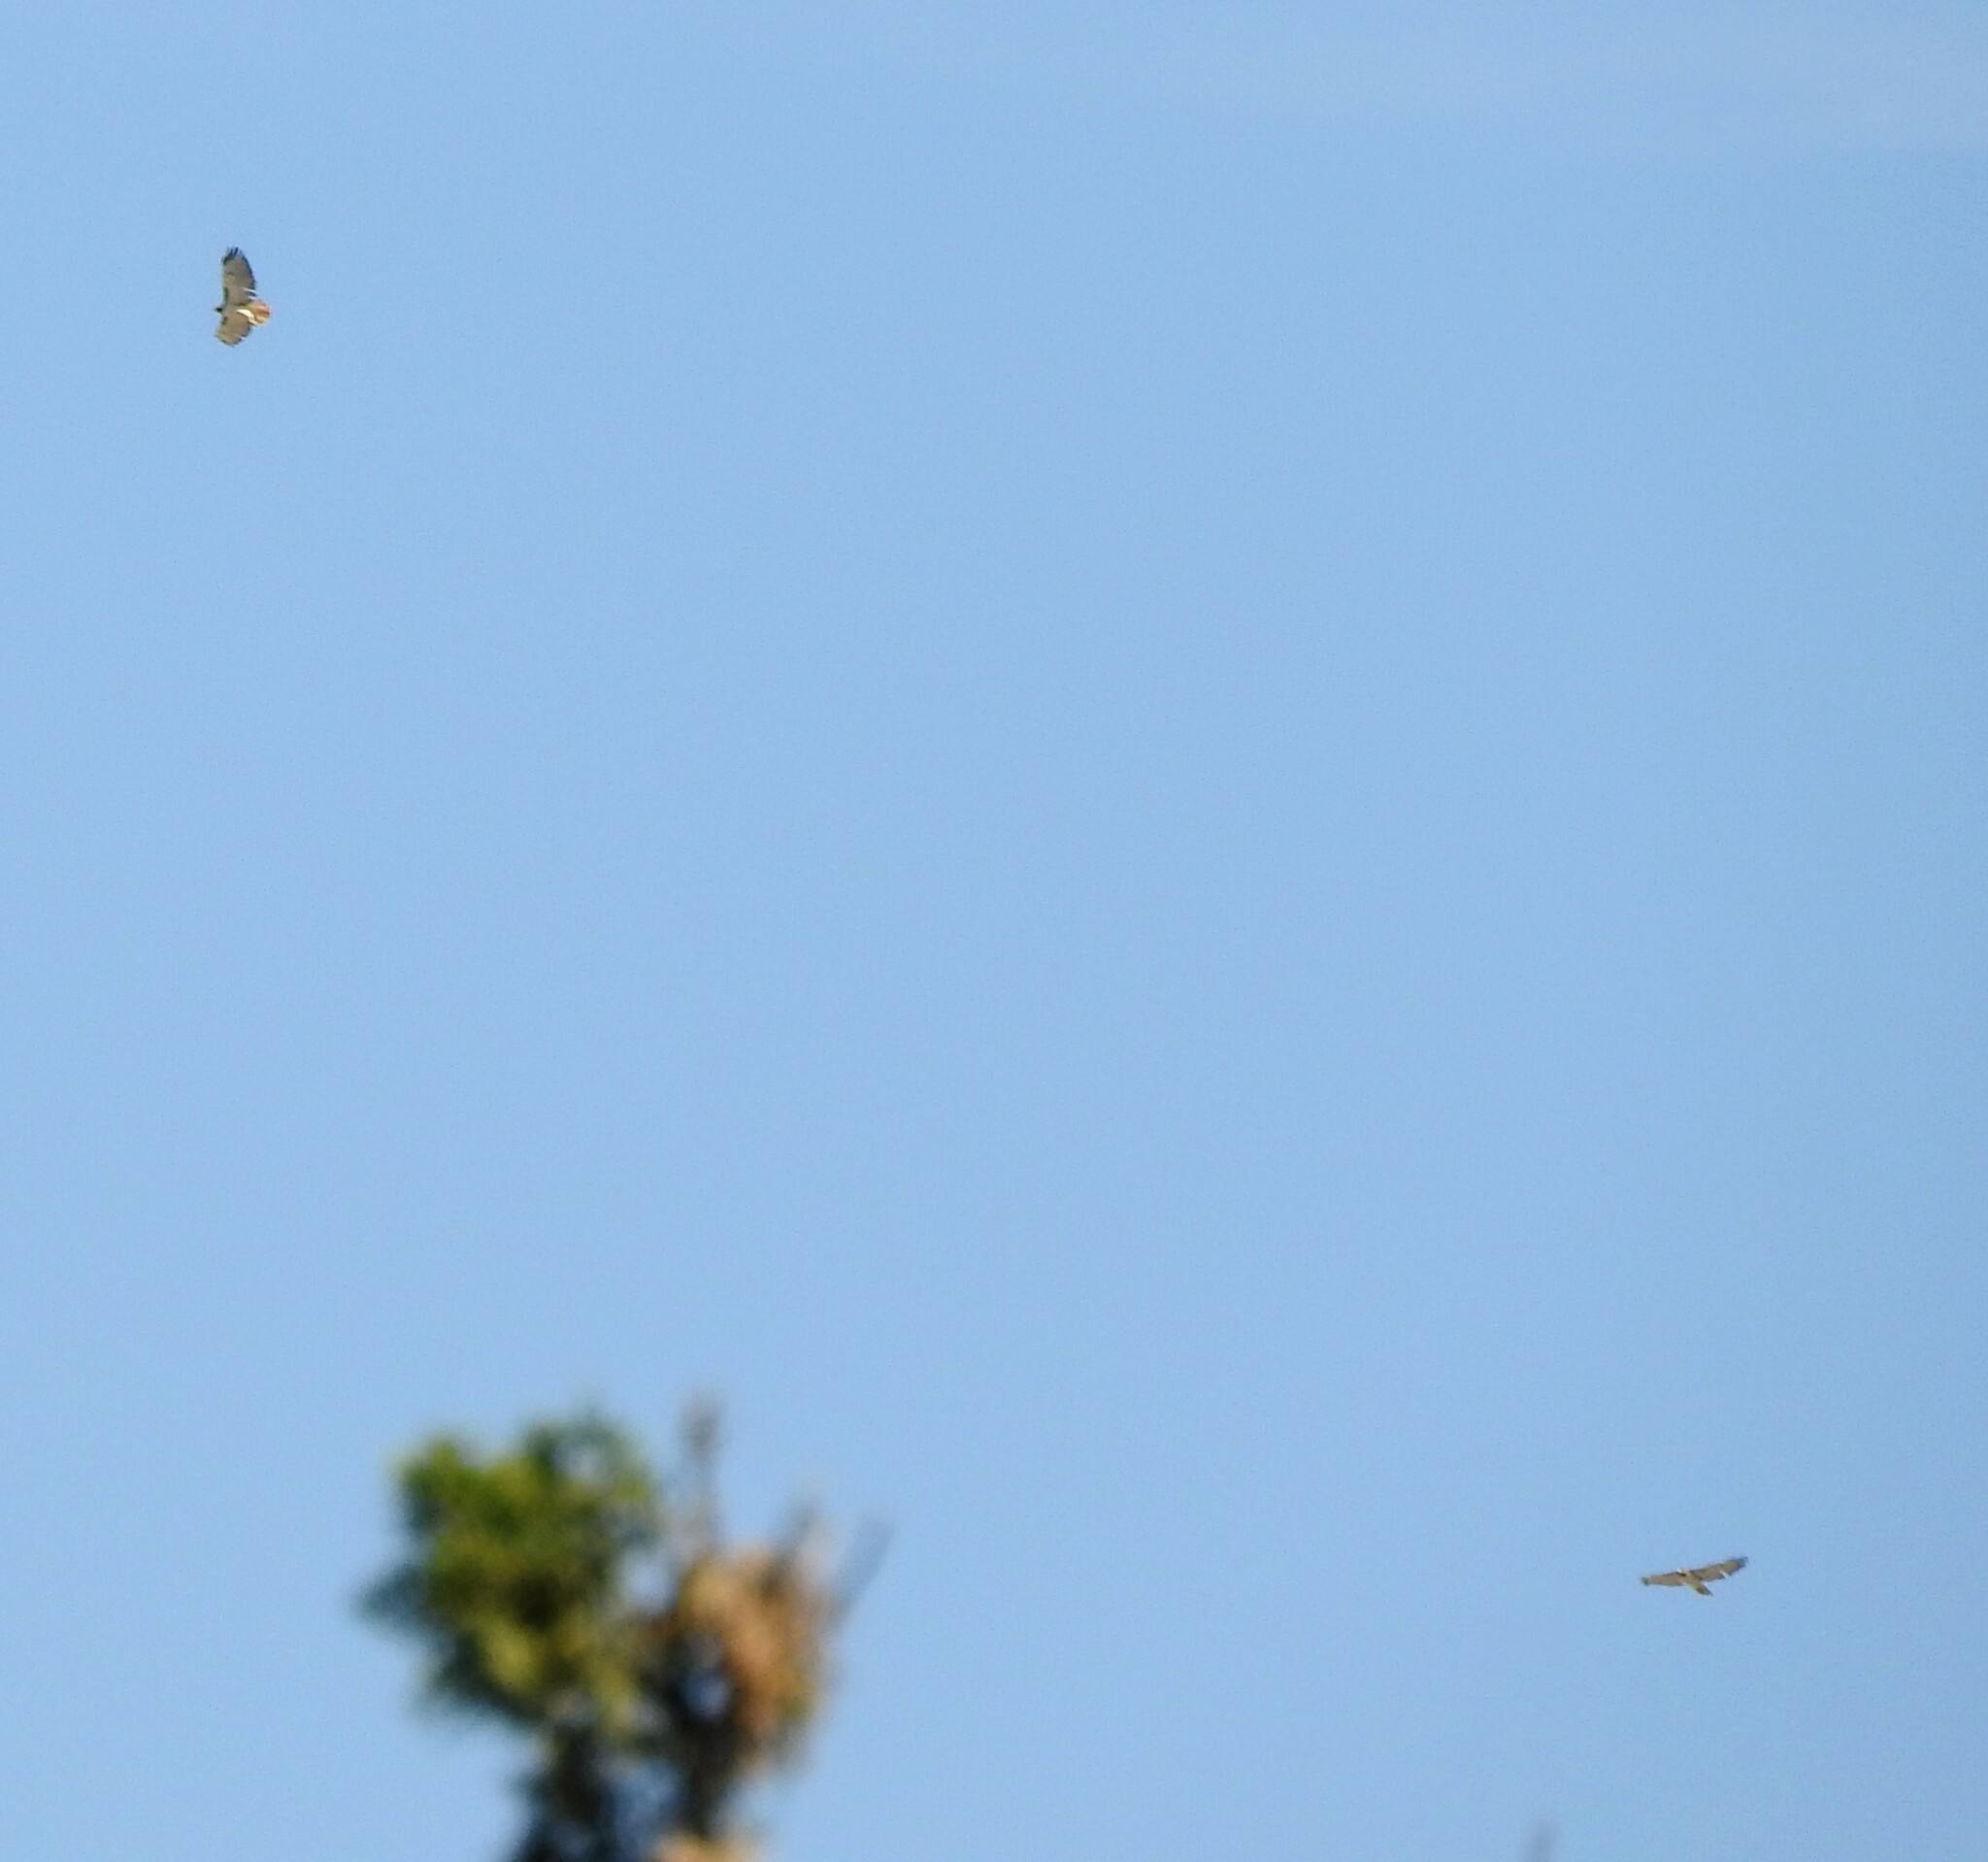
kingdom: Animalia
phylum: Chordata
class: Aves
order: Accipitriformes
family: Accipitridae
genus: Buteo
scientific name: Buteo jamaicensis
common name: Red-tailed hawk
